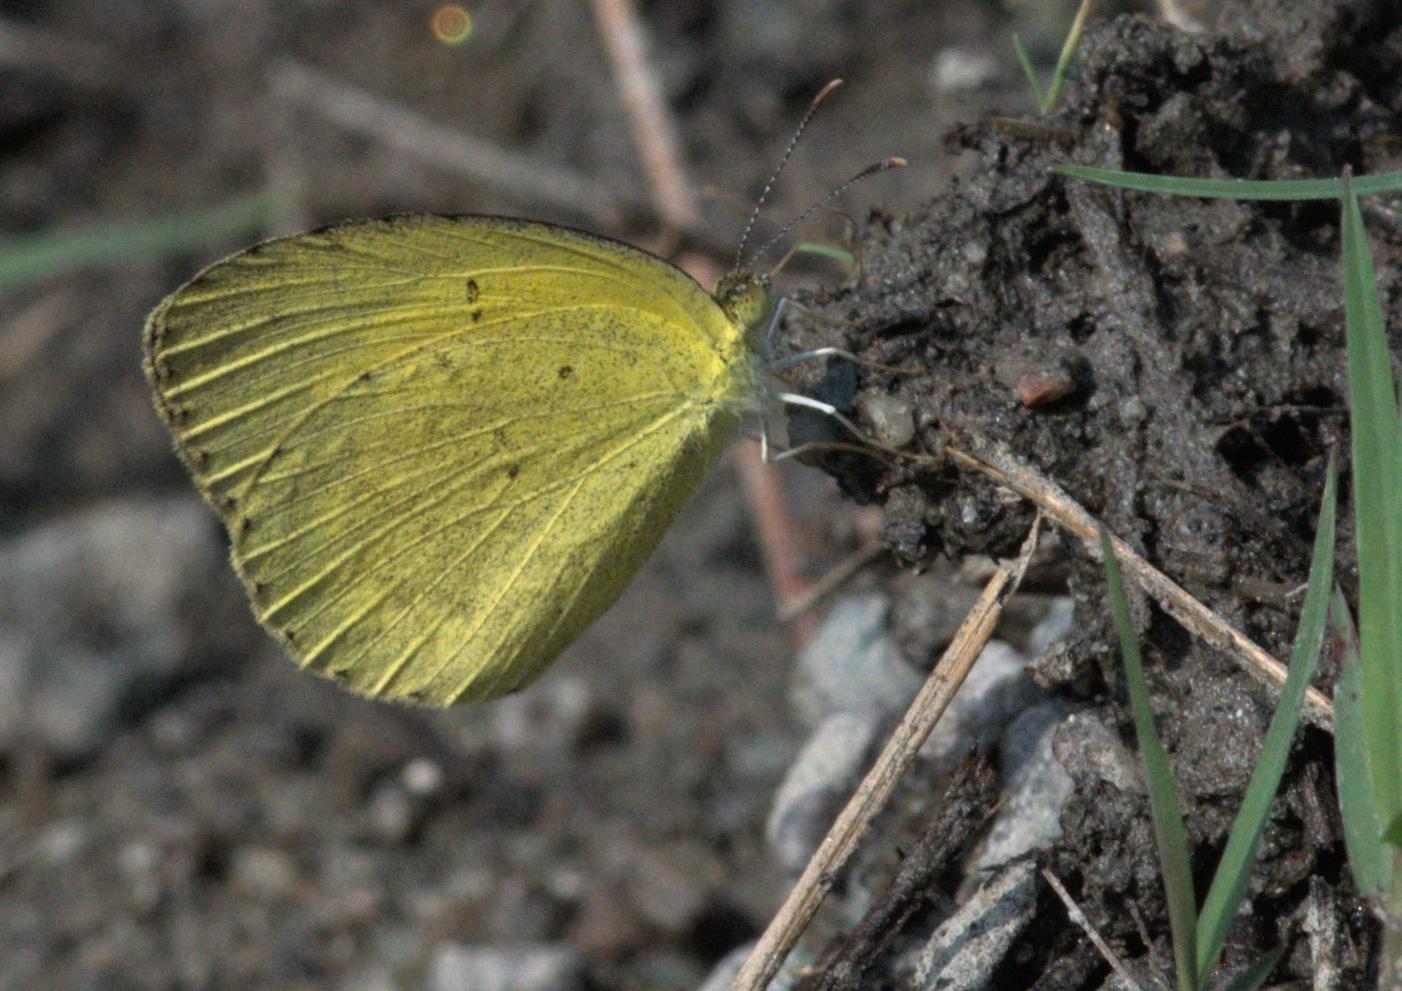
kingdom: Animalia
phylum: Arthropoda
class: Insecta
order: Lepidoptera
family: Pieridae
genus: Eurema
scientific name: Eurema brigitta
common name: Small grass yellow
